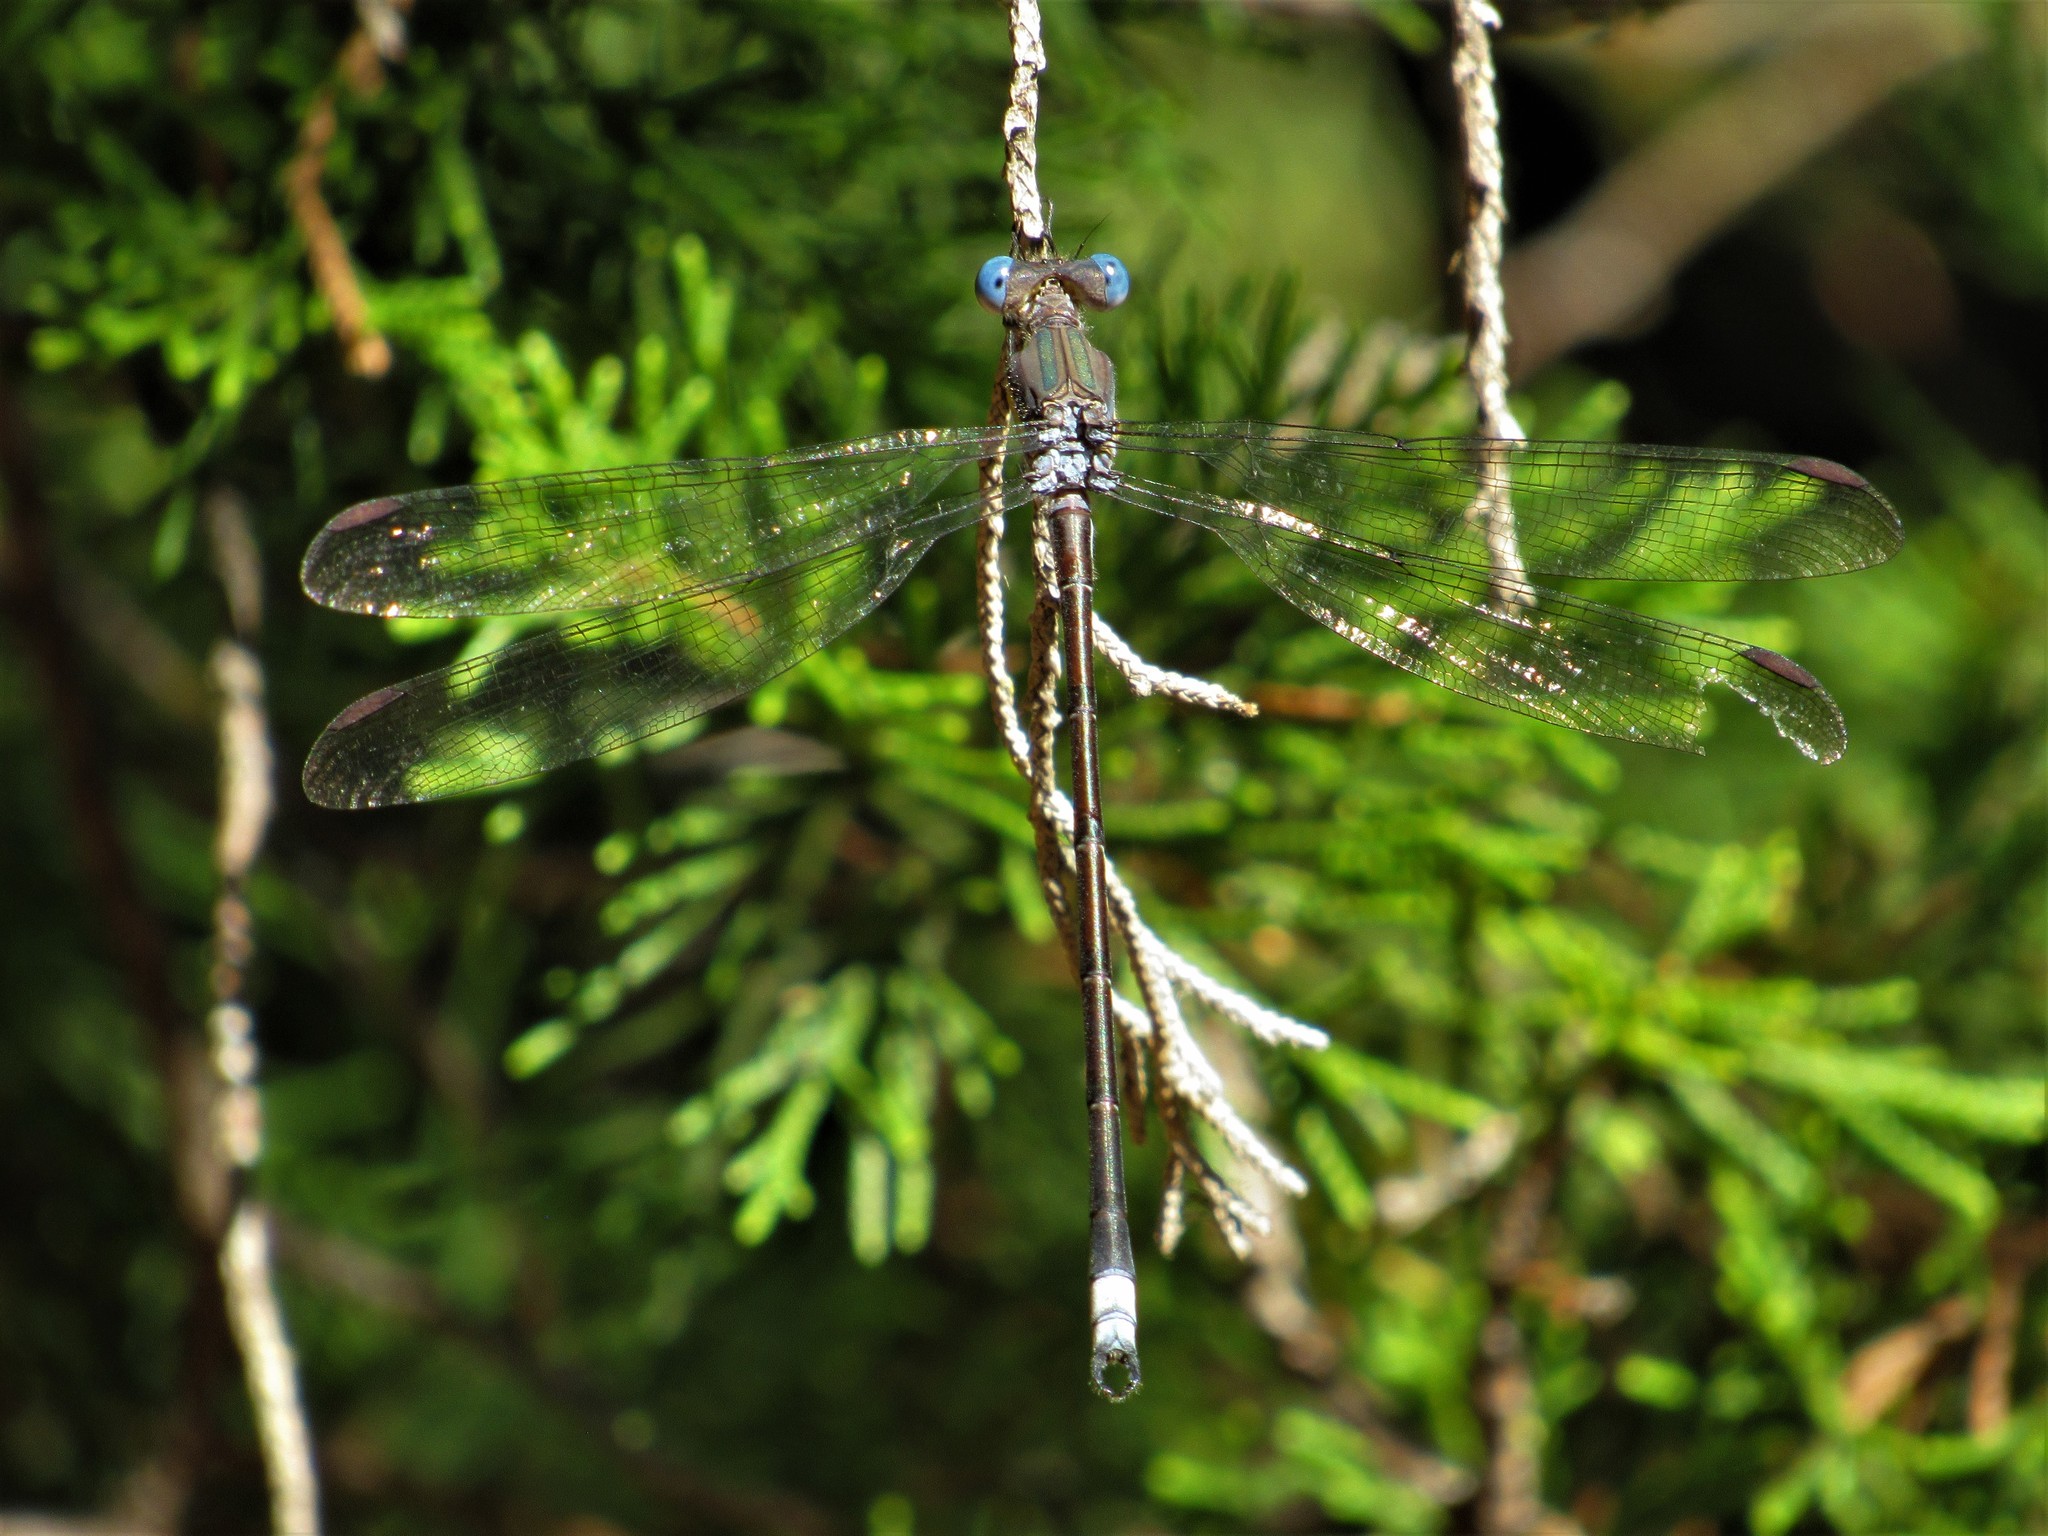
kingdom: Animalia
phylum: Arthropoda
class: Insecta
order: Odonata
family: Lestidae
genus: Archilestes
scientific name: Archilestes grandis
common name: Great spreadwing
